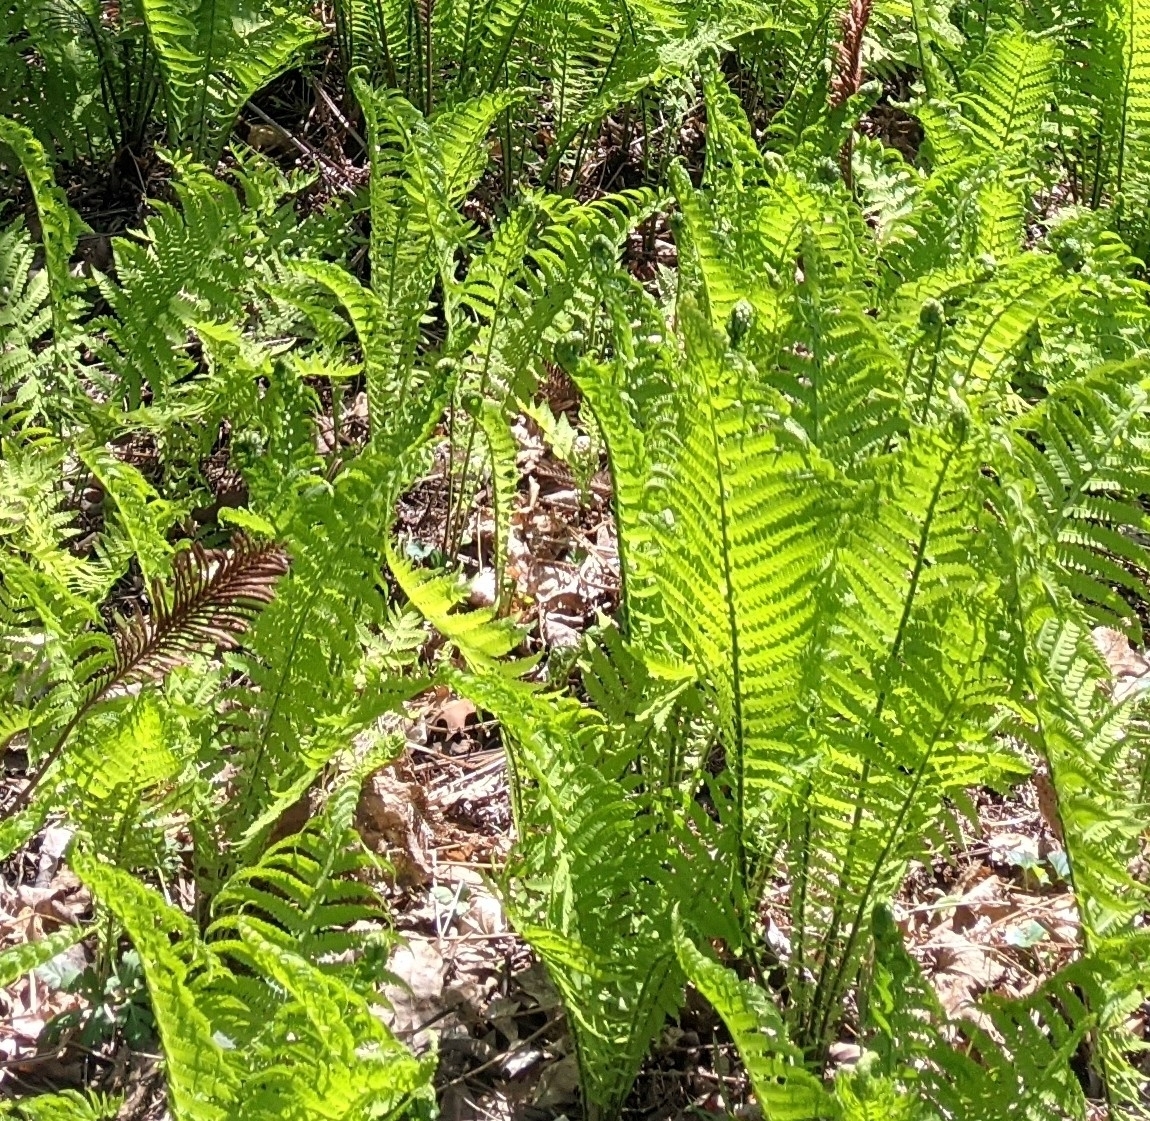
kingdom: Plantae
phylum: Tracheophyta
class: Polypodiopsida
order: Polypodiales
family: Onocleaceae
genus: Matteuccia
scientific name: Matteuccia struthiopteris
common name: Ostrich fern
